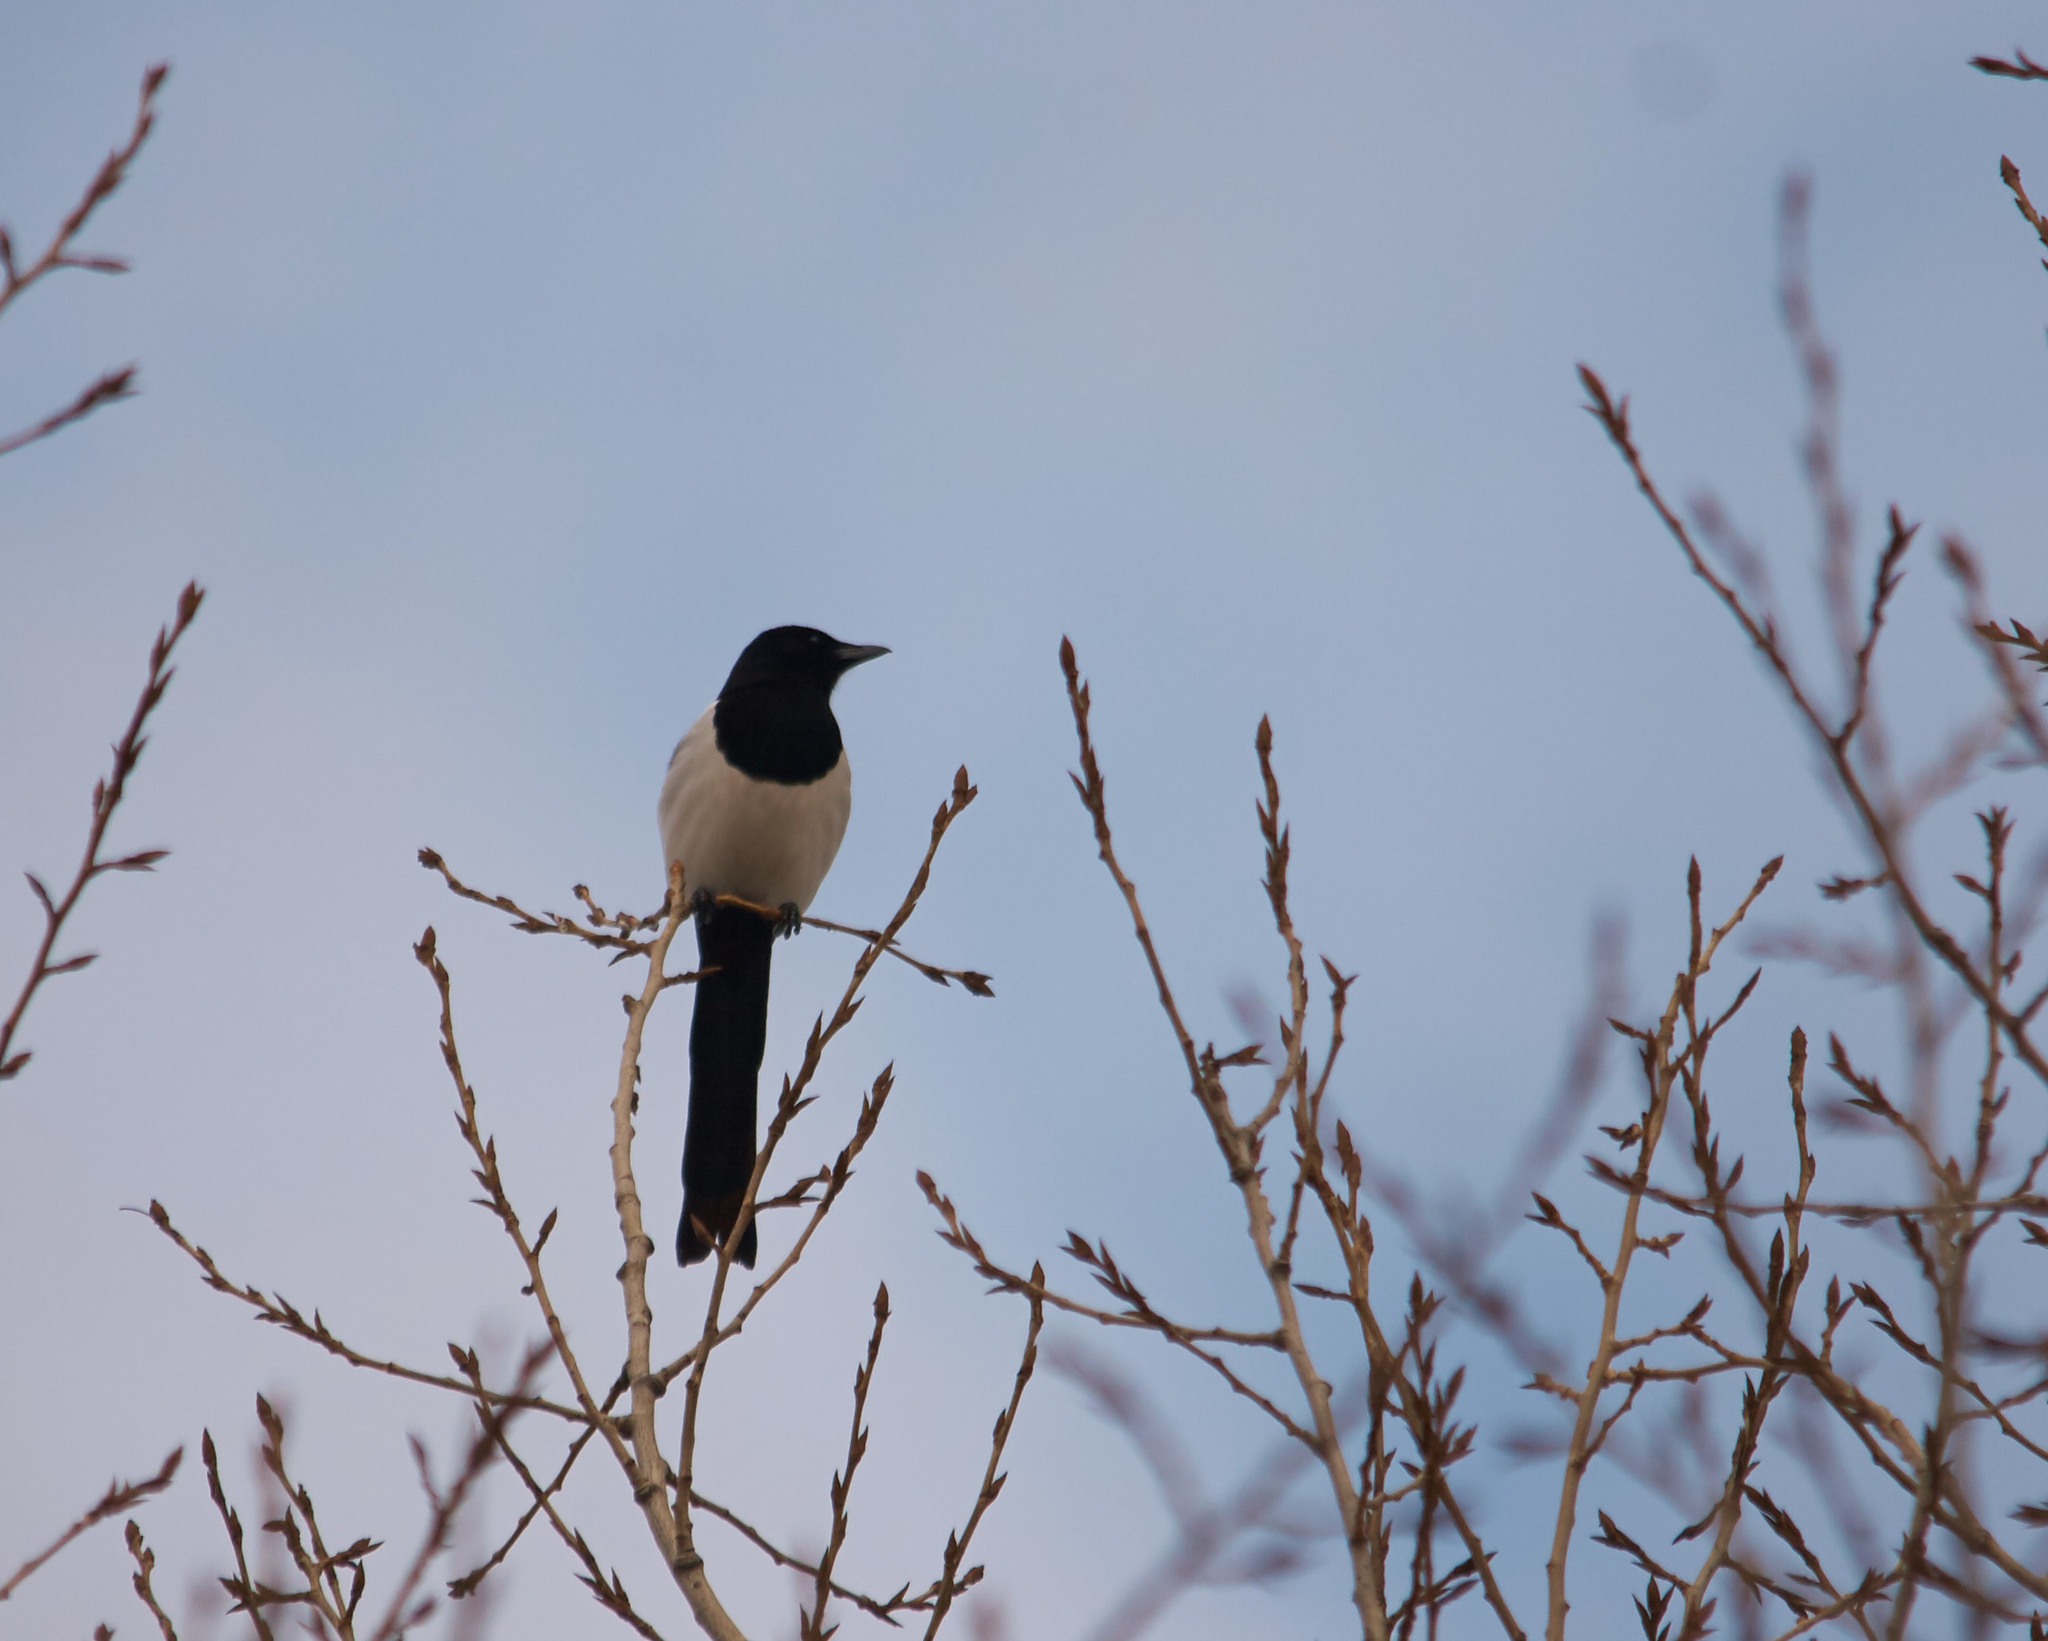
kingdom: Animalia
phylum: Chordata
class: Aves
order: Passeriformes
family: Corvidae
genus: Pica
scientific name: Pica pica
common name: Eurasian magpie
